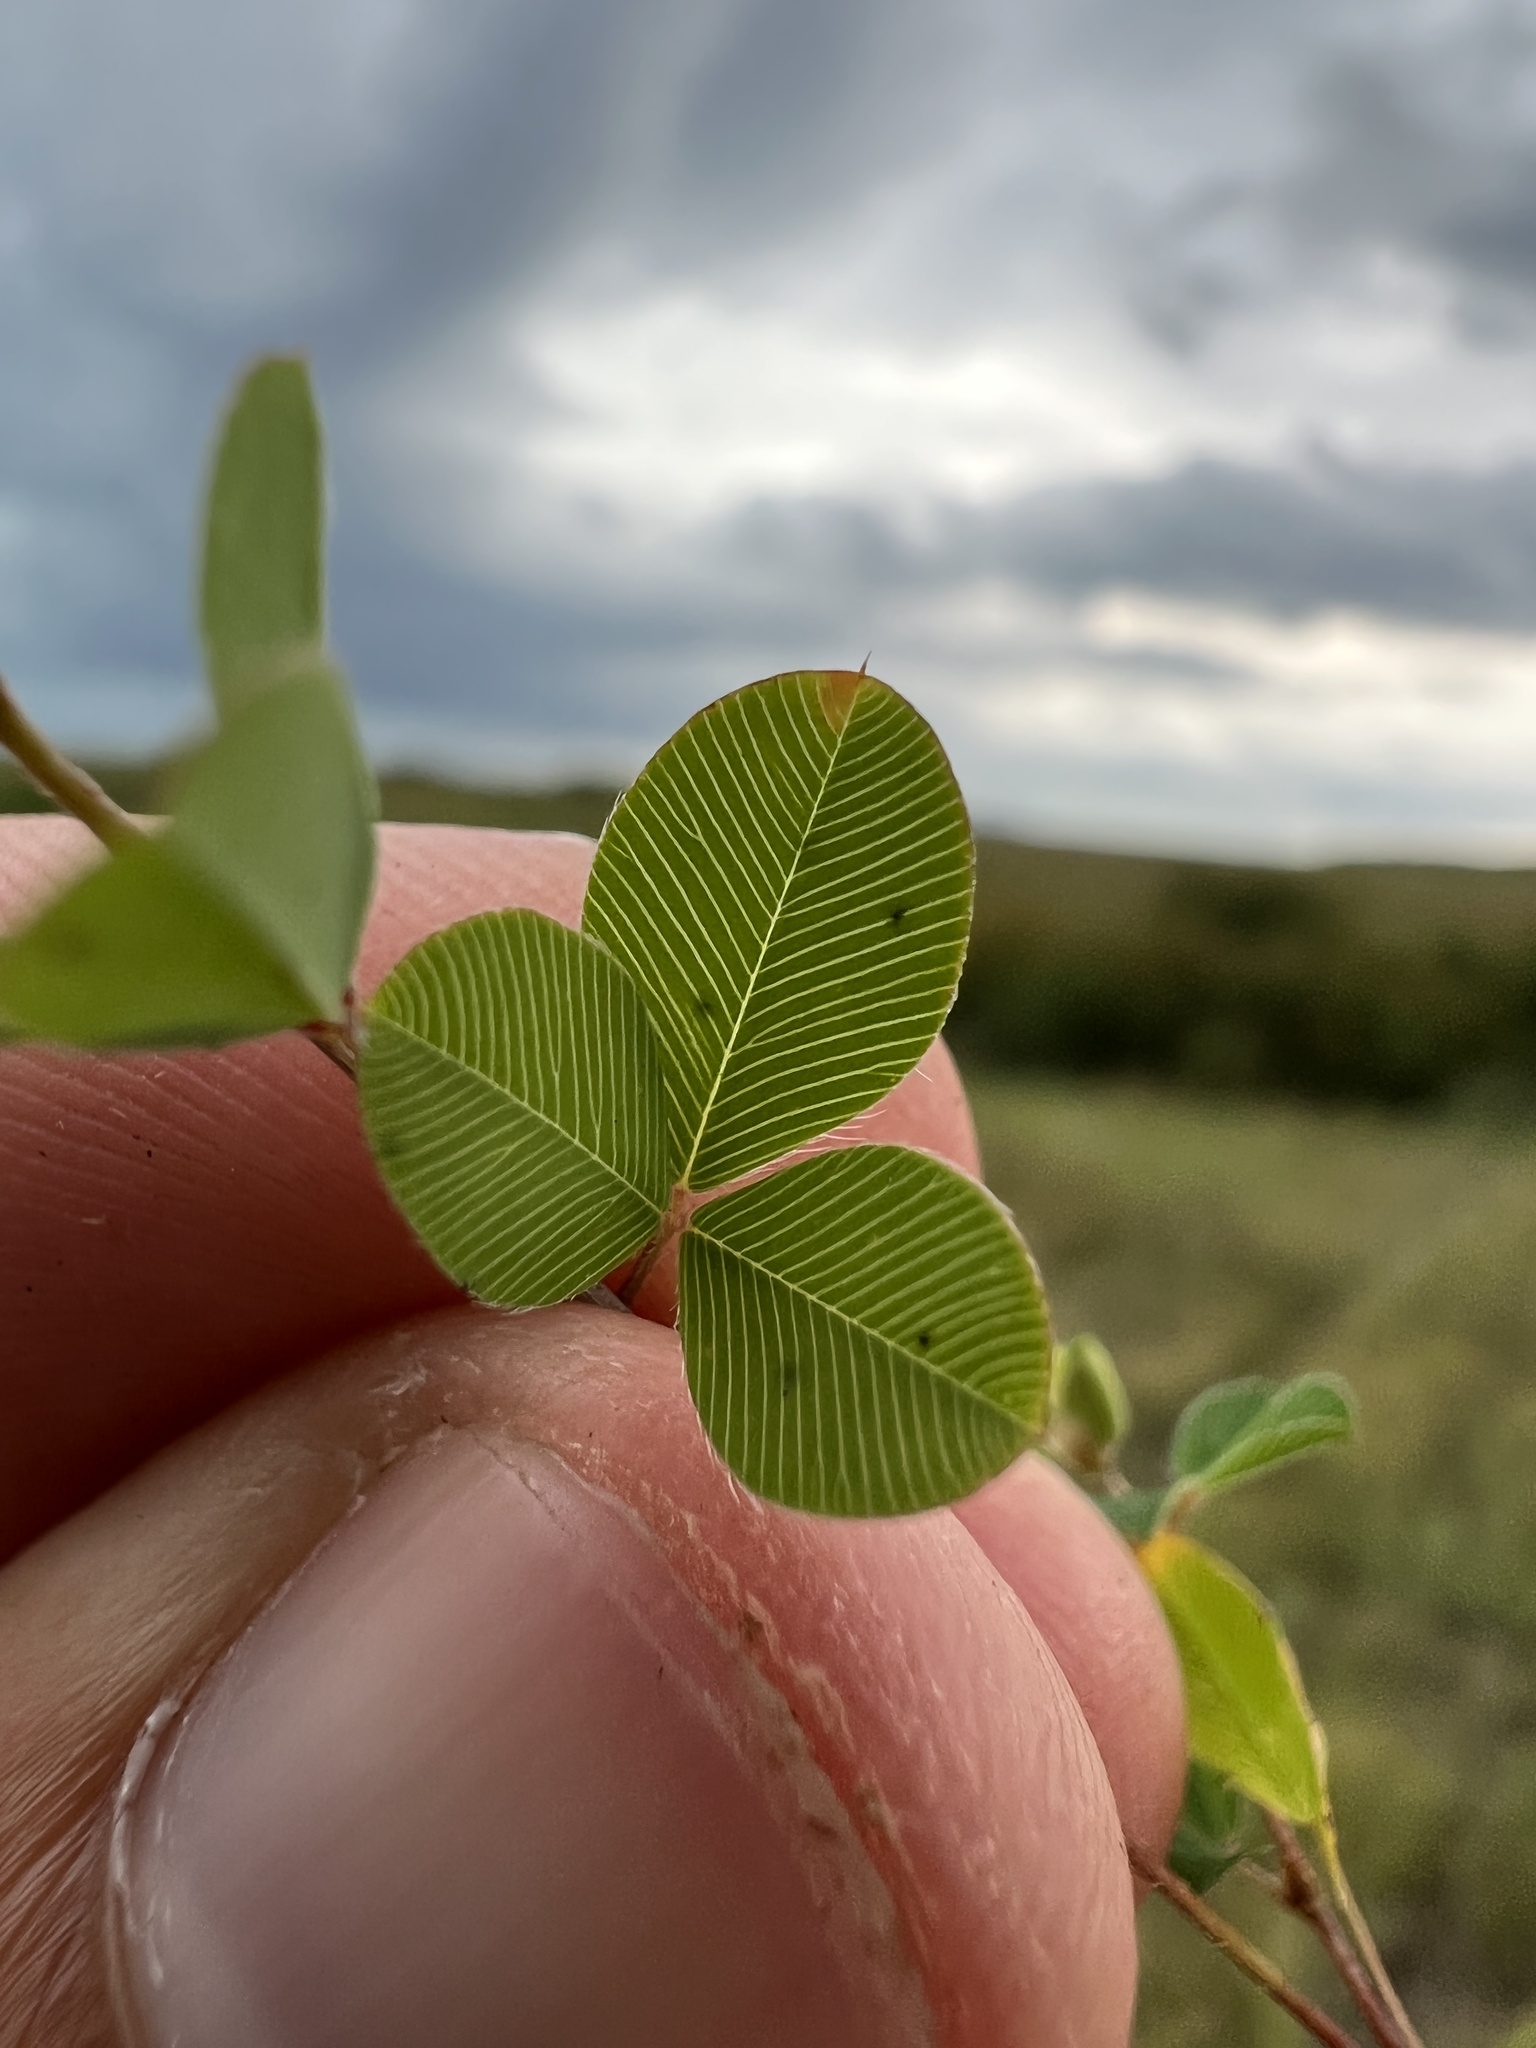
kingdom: Plantae
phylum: Tracheophyta
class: Magnoliopsida
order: Fabales
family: Fabaceae
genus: Kummerowia
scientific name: Kummerowia stipulacea
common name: Korean clover
